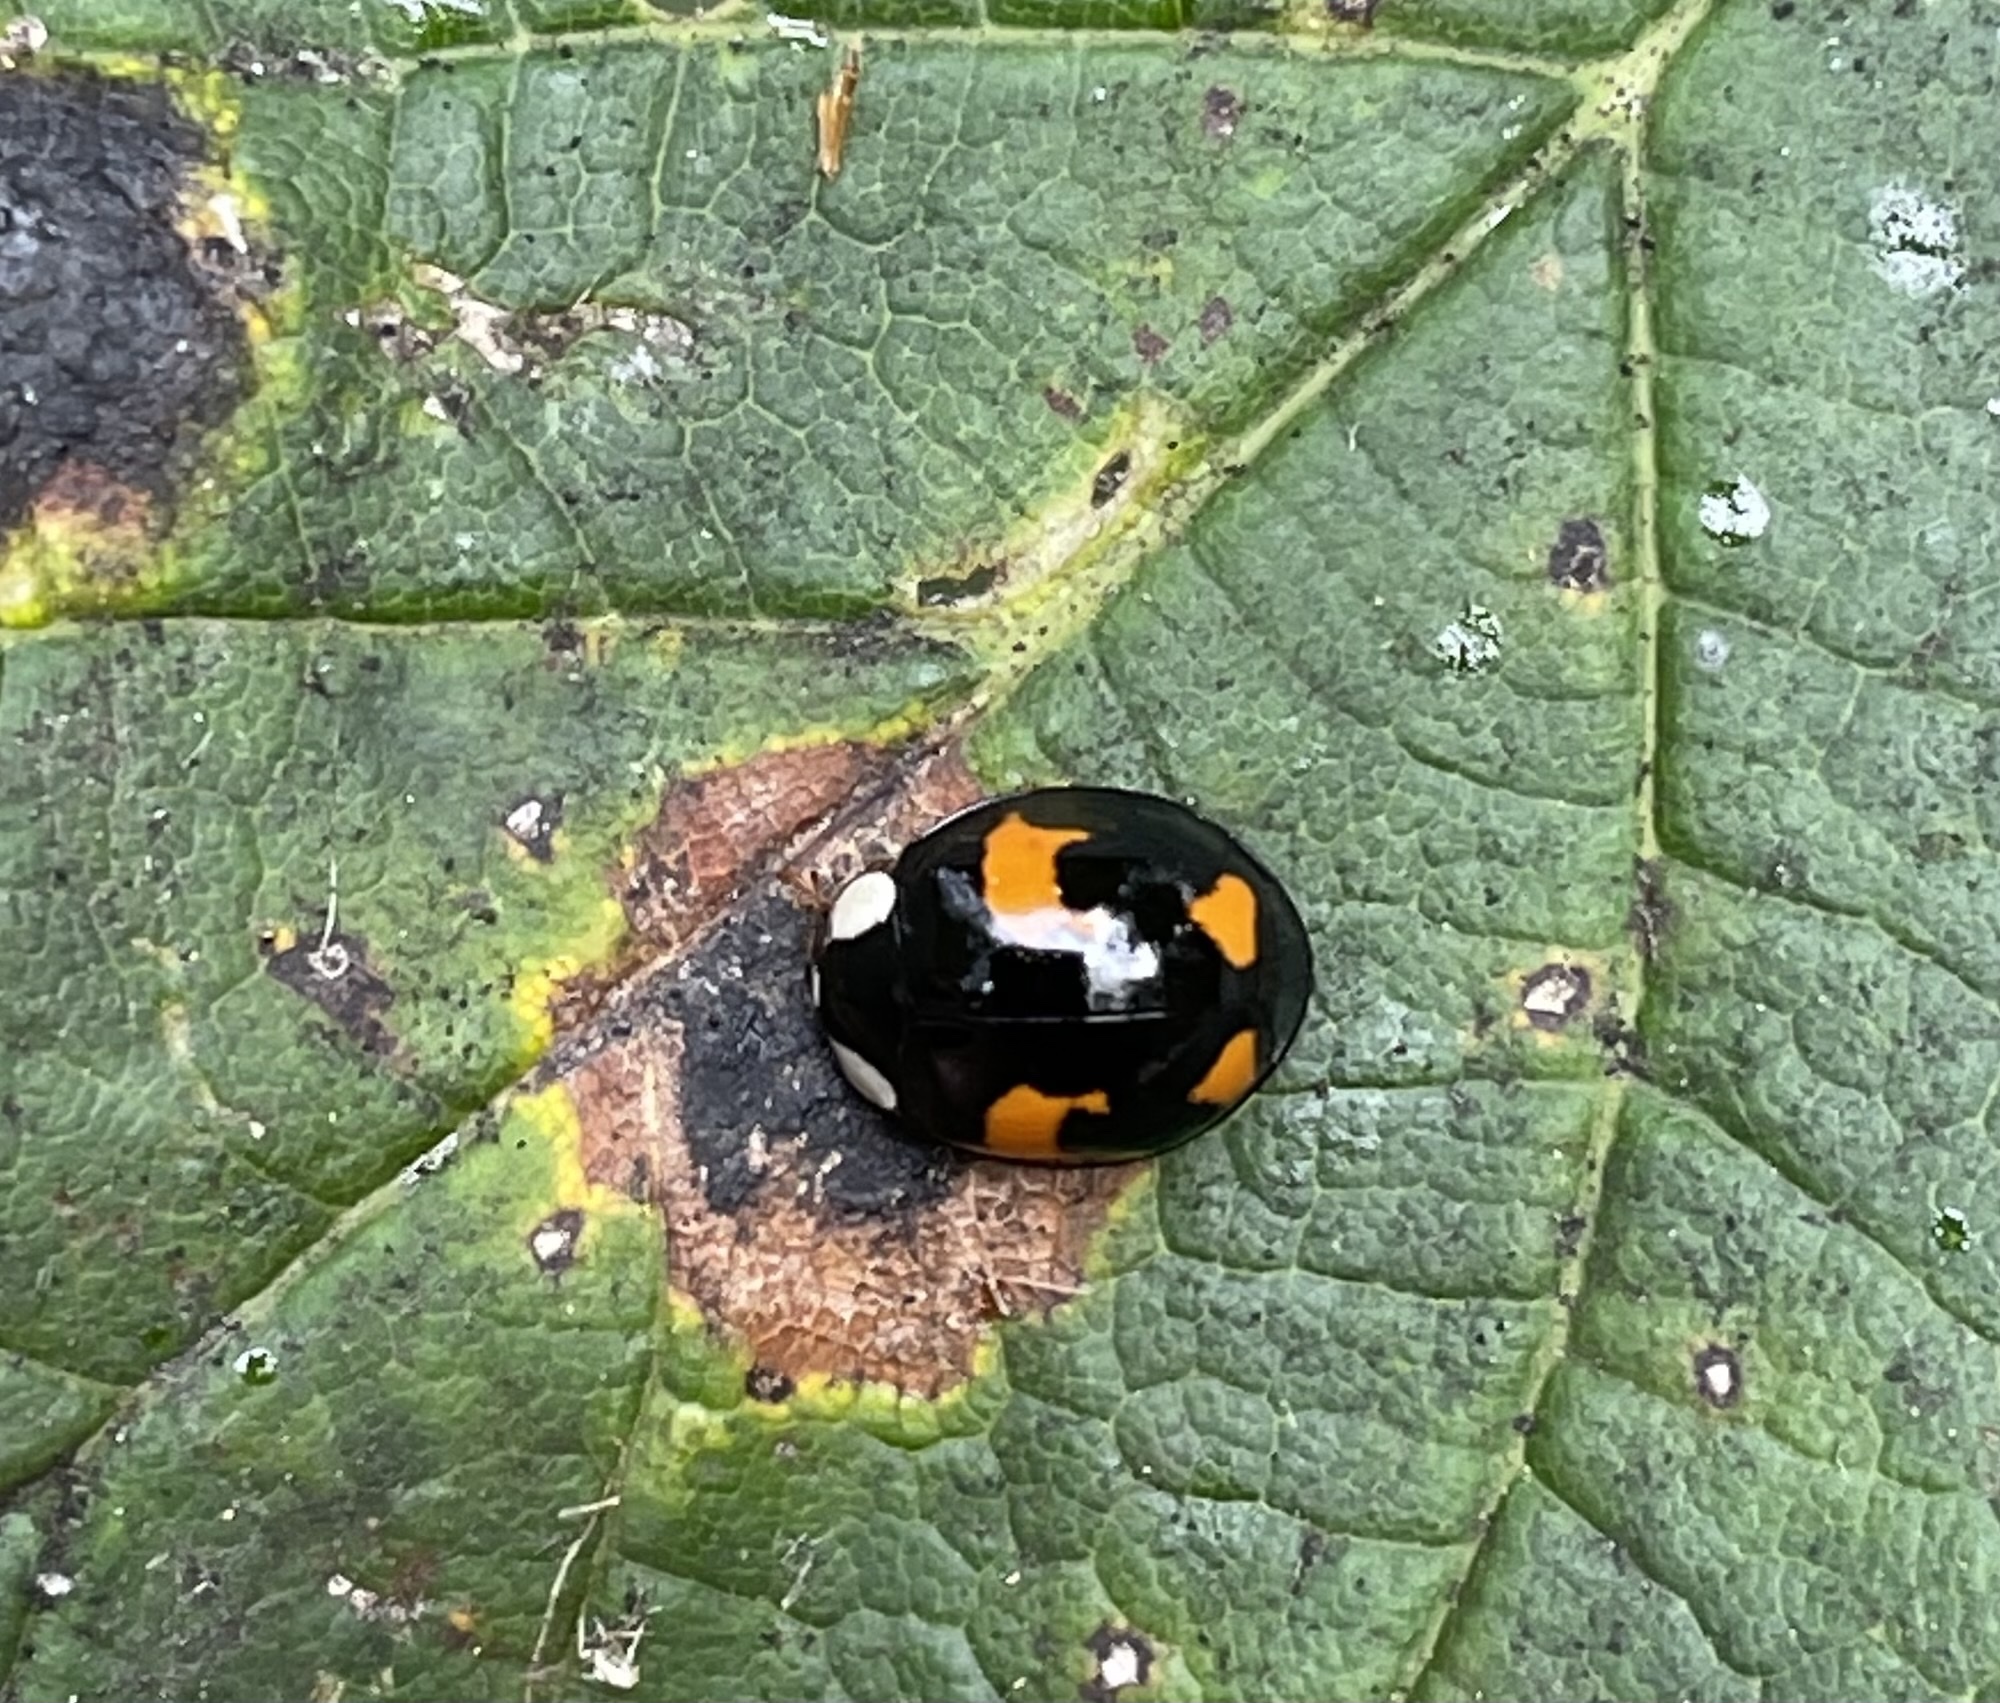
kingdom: Animalia
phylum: Arthropoda
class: Insecta
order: Coleoptera
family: Coccinellidae
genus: Harmonia
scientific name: Harmonia axyridis
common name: Harlequin ladybird
